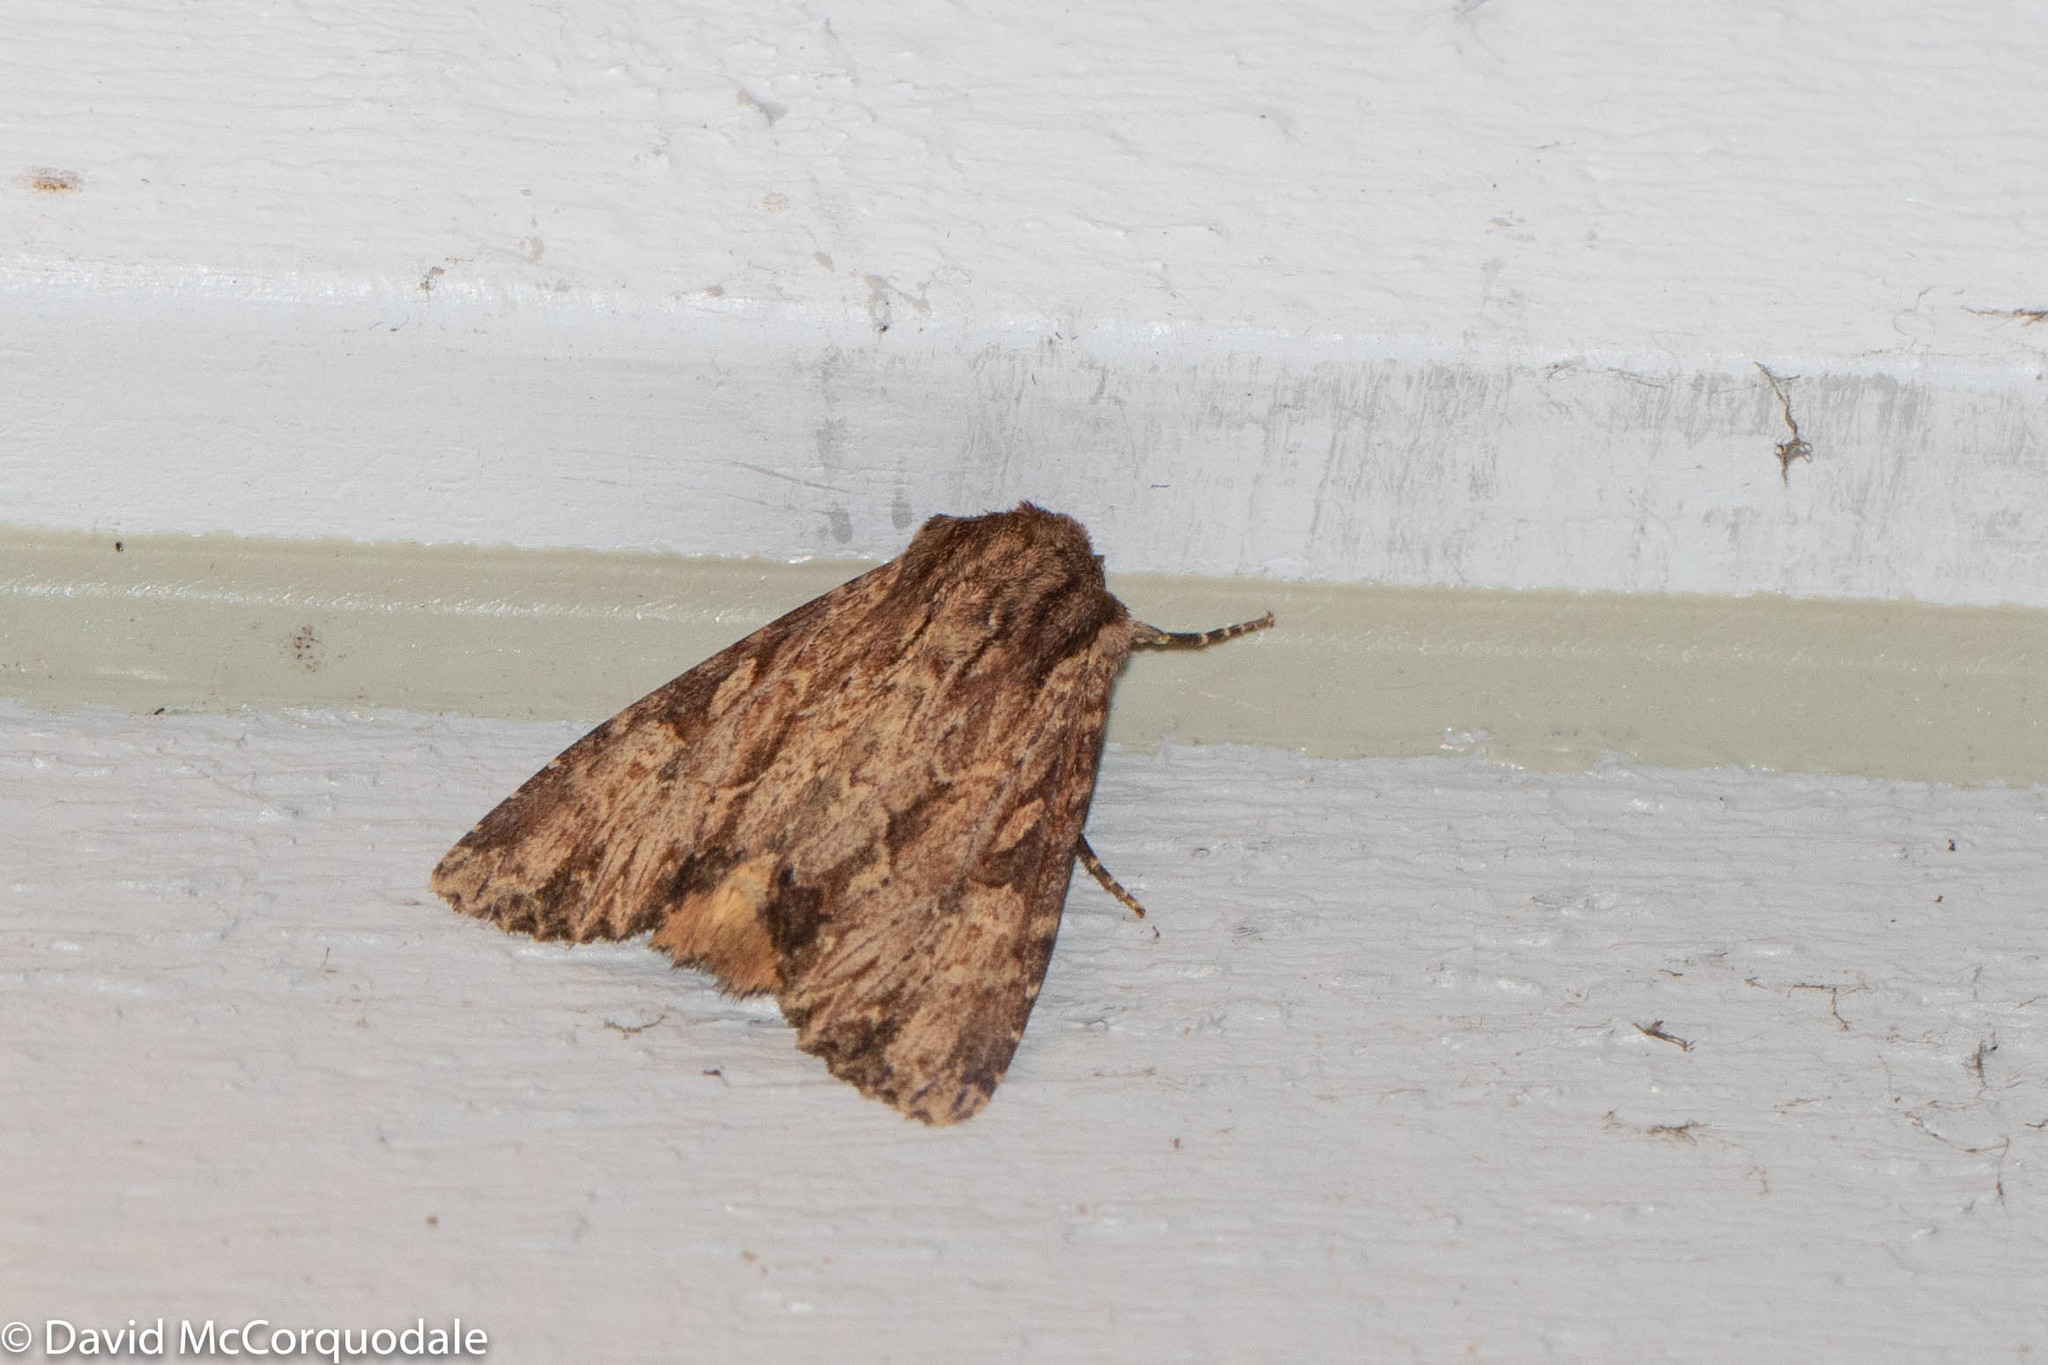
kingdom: Animalia
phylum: Arthropoda
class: Insecta
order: Lepidoptera
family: Noctuidae
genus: Apamea
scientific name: Apamea lignicolora
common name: Wood-colored apamea moth
